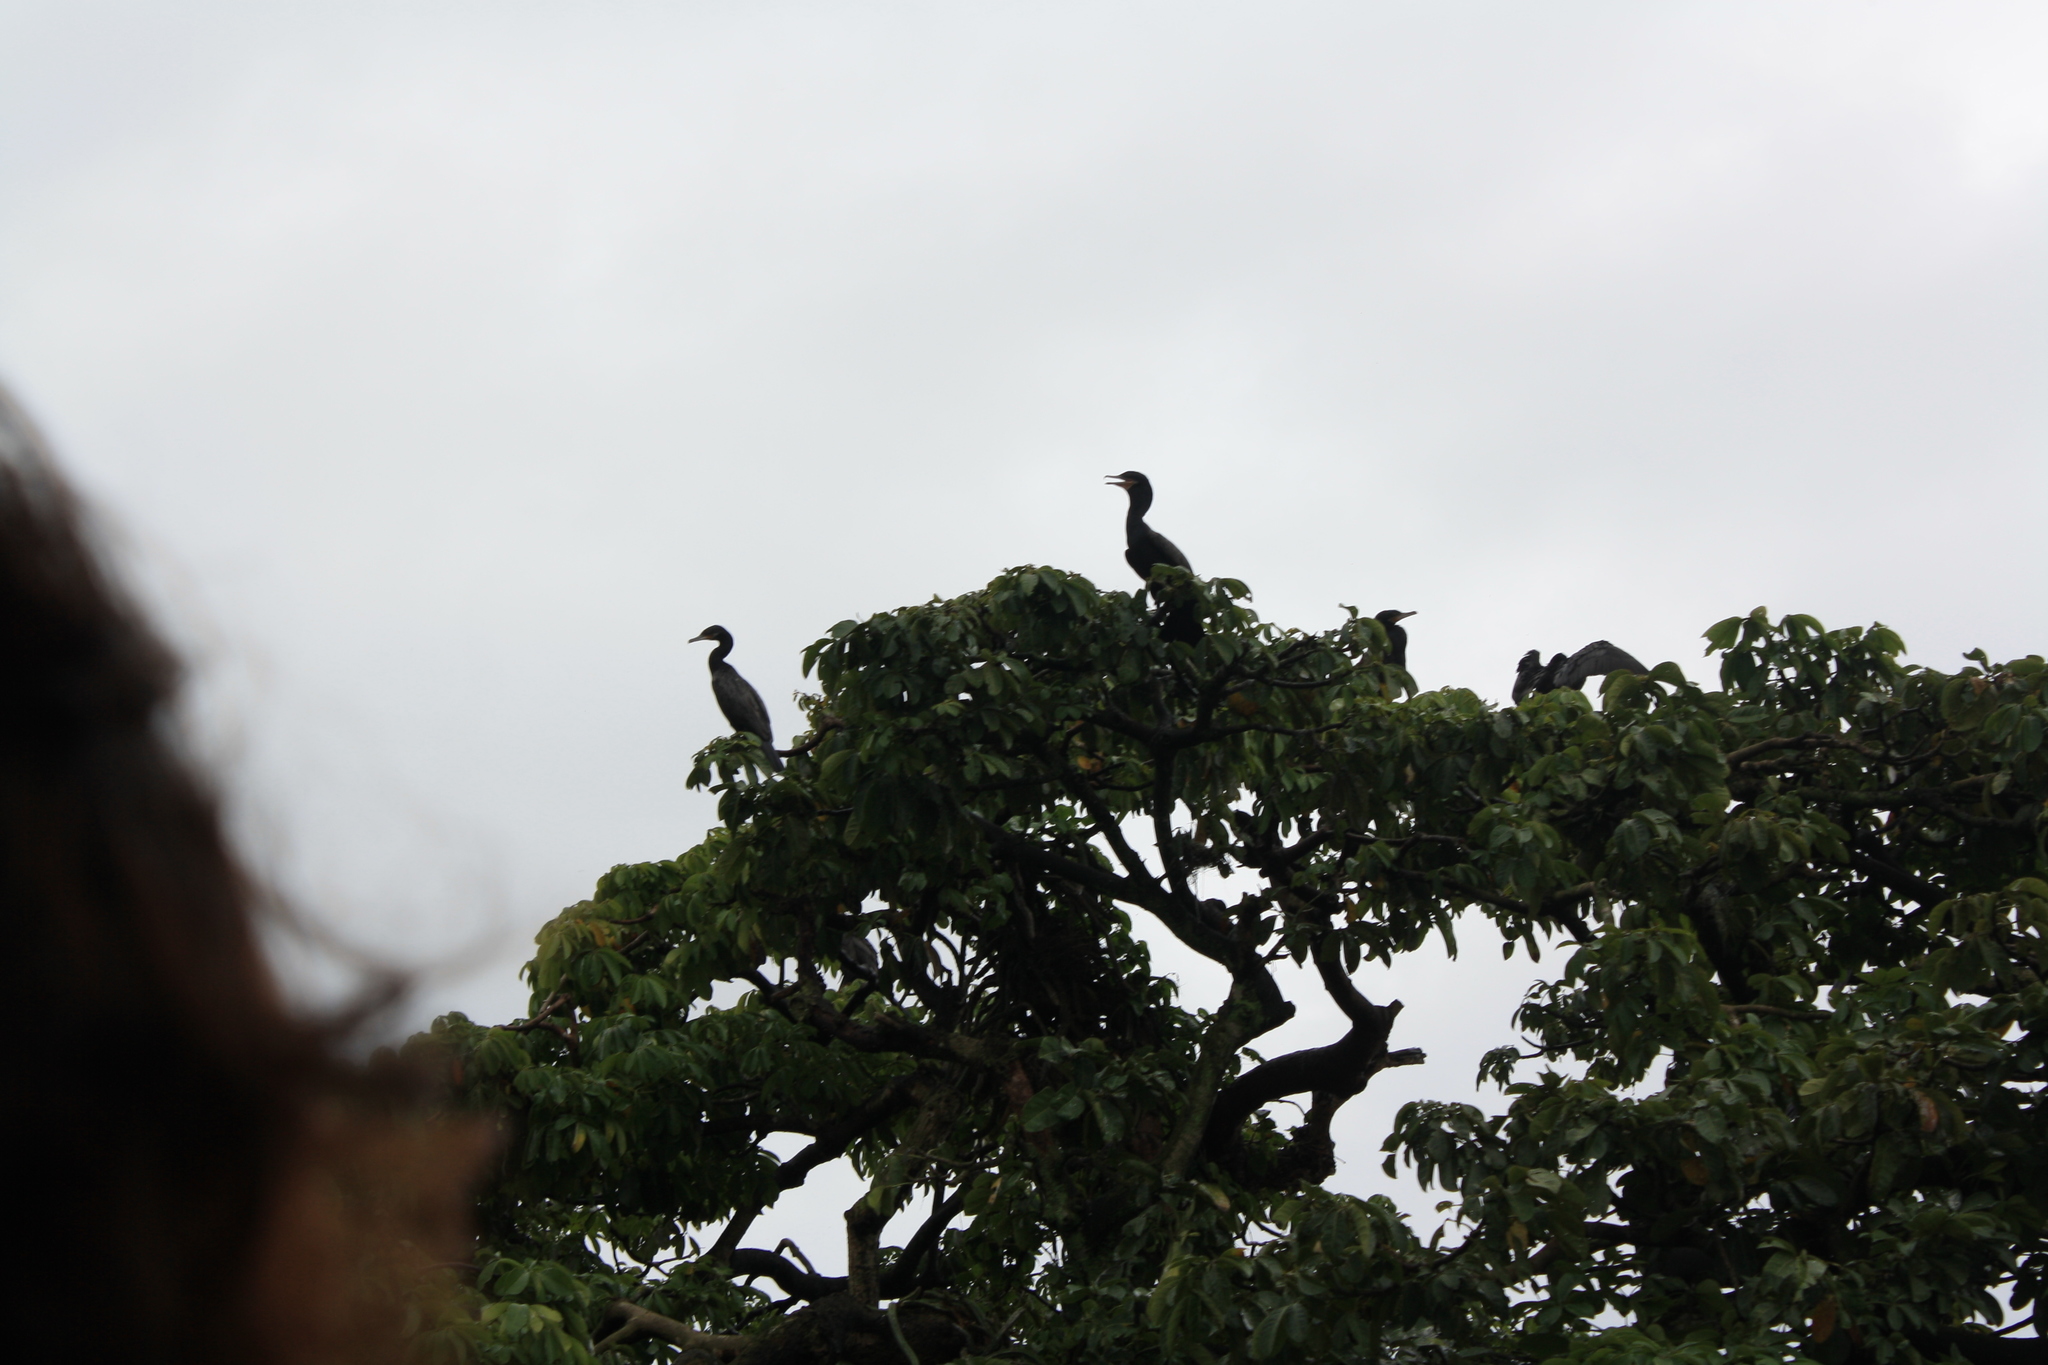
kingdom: Animalia
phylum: Chordata
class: Aves
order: Suliformes
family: Phalacrocoracidae
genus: Phalacrocorax
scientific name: Phalacrocorax brasilianus
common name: Neotropic cormorant
